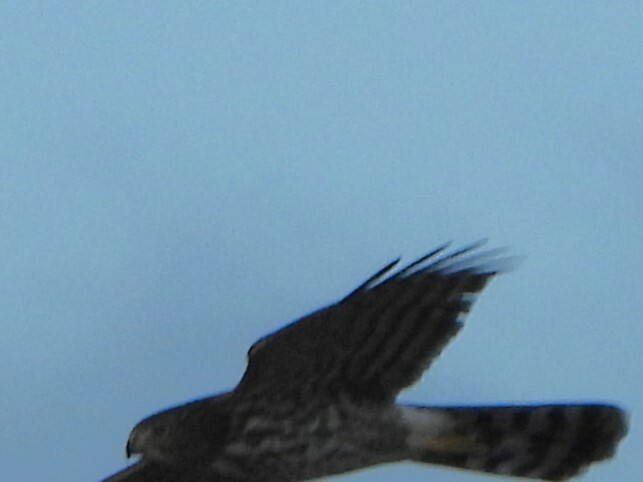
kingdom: Animalia
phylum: Chordata
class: Aves
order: Accipitriformes
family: Accipitridae
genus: Accipiter
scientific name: Accipiter cooperii
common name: Cooper's hawk
